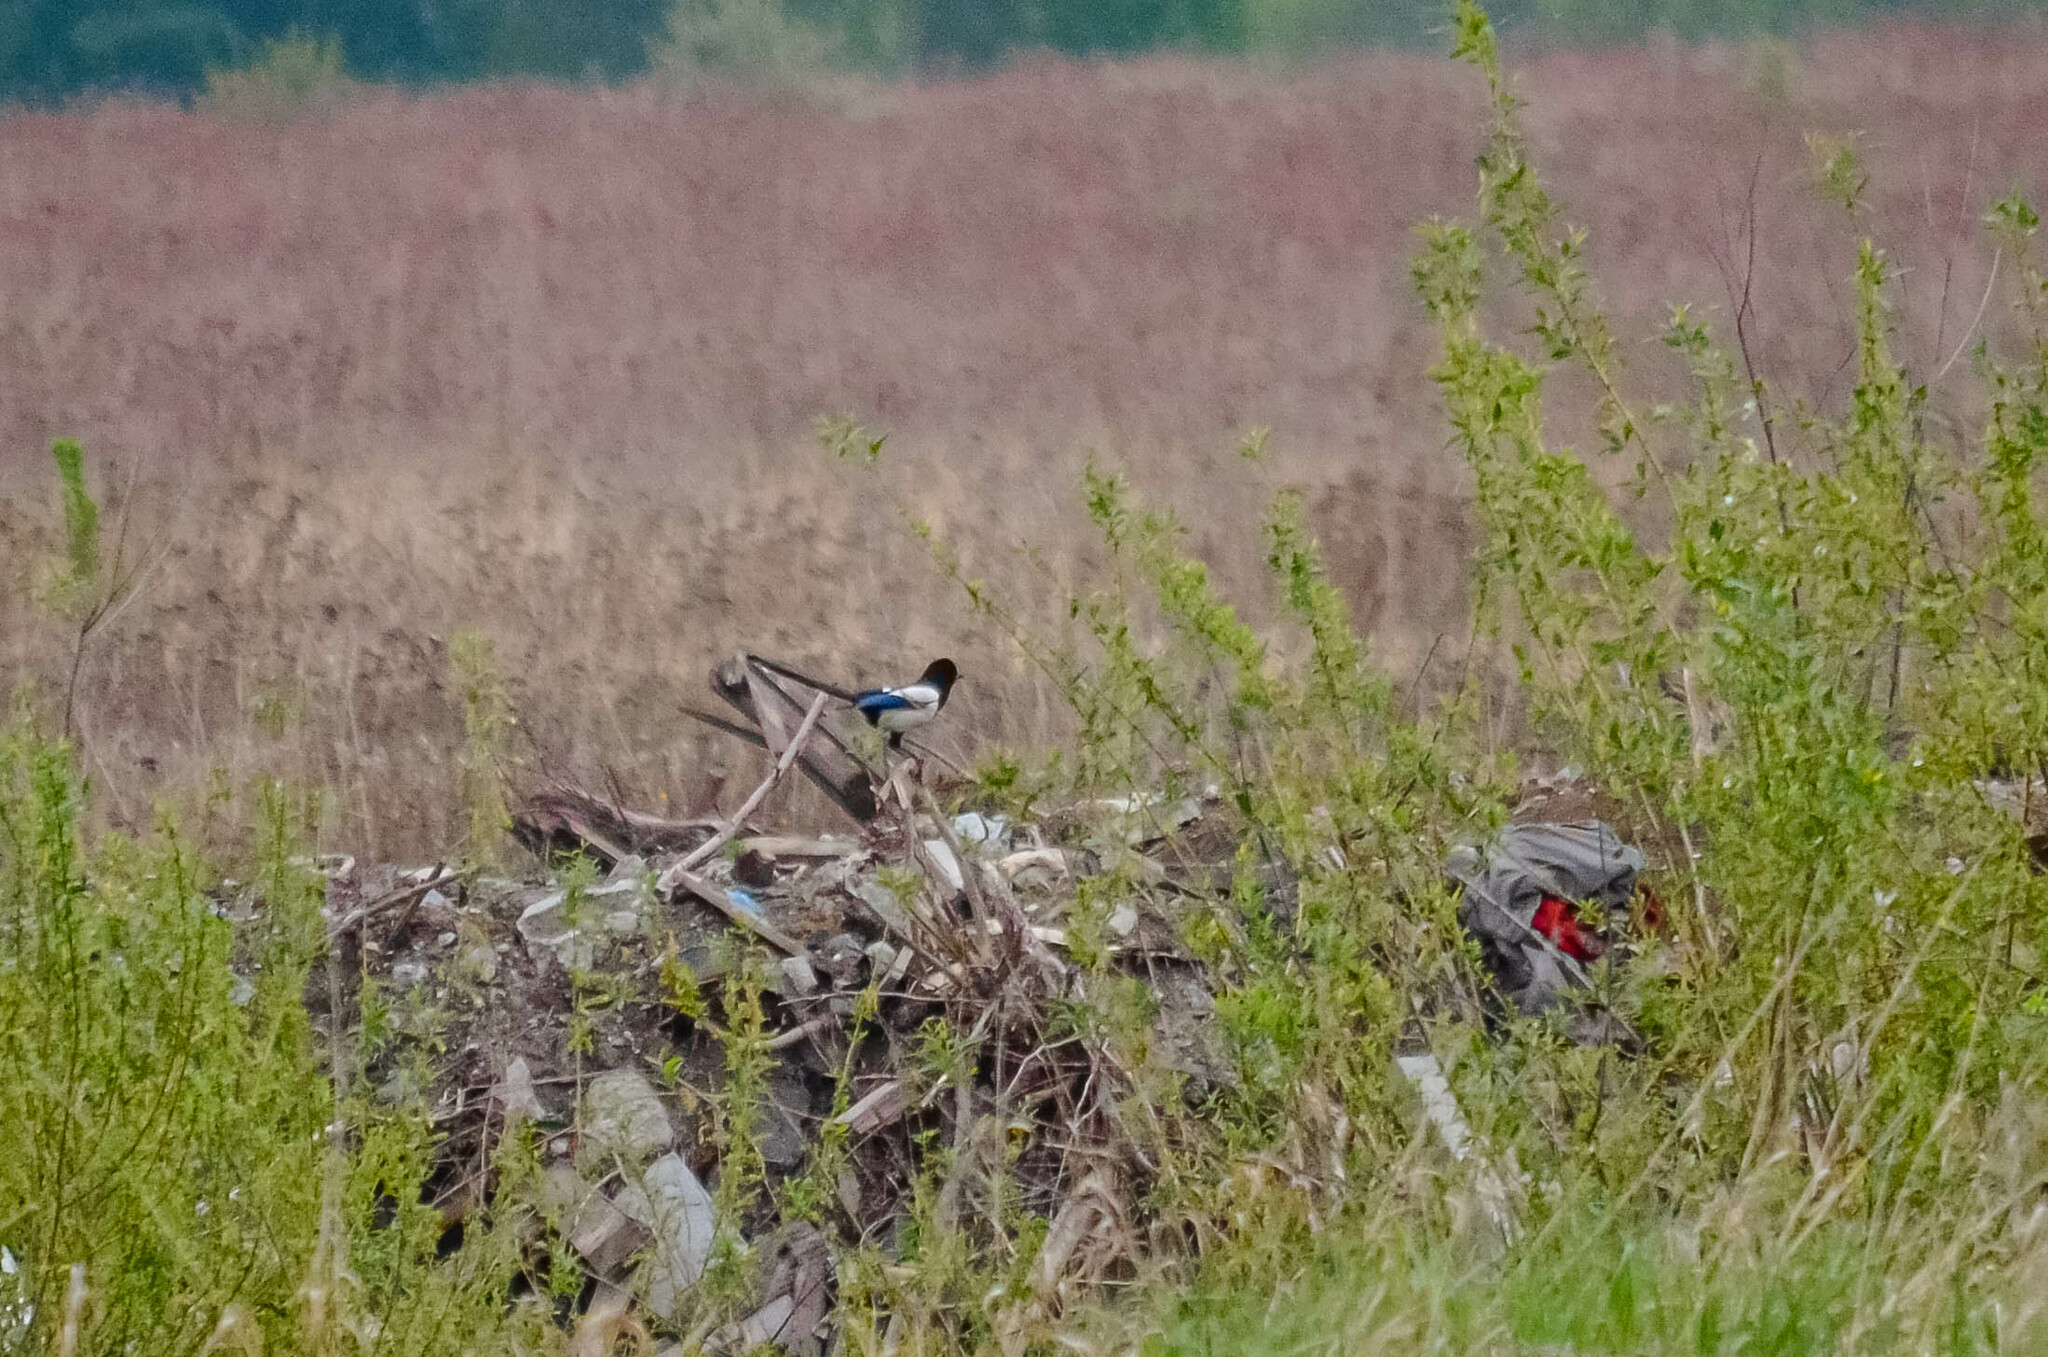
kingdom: Animalia
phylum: Chordata
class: Aves
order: Passeriformes
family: Corvidae
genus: Pica
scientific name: Pica pica
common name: Eurasian magpie
